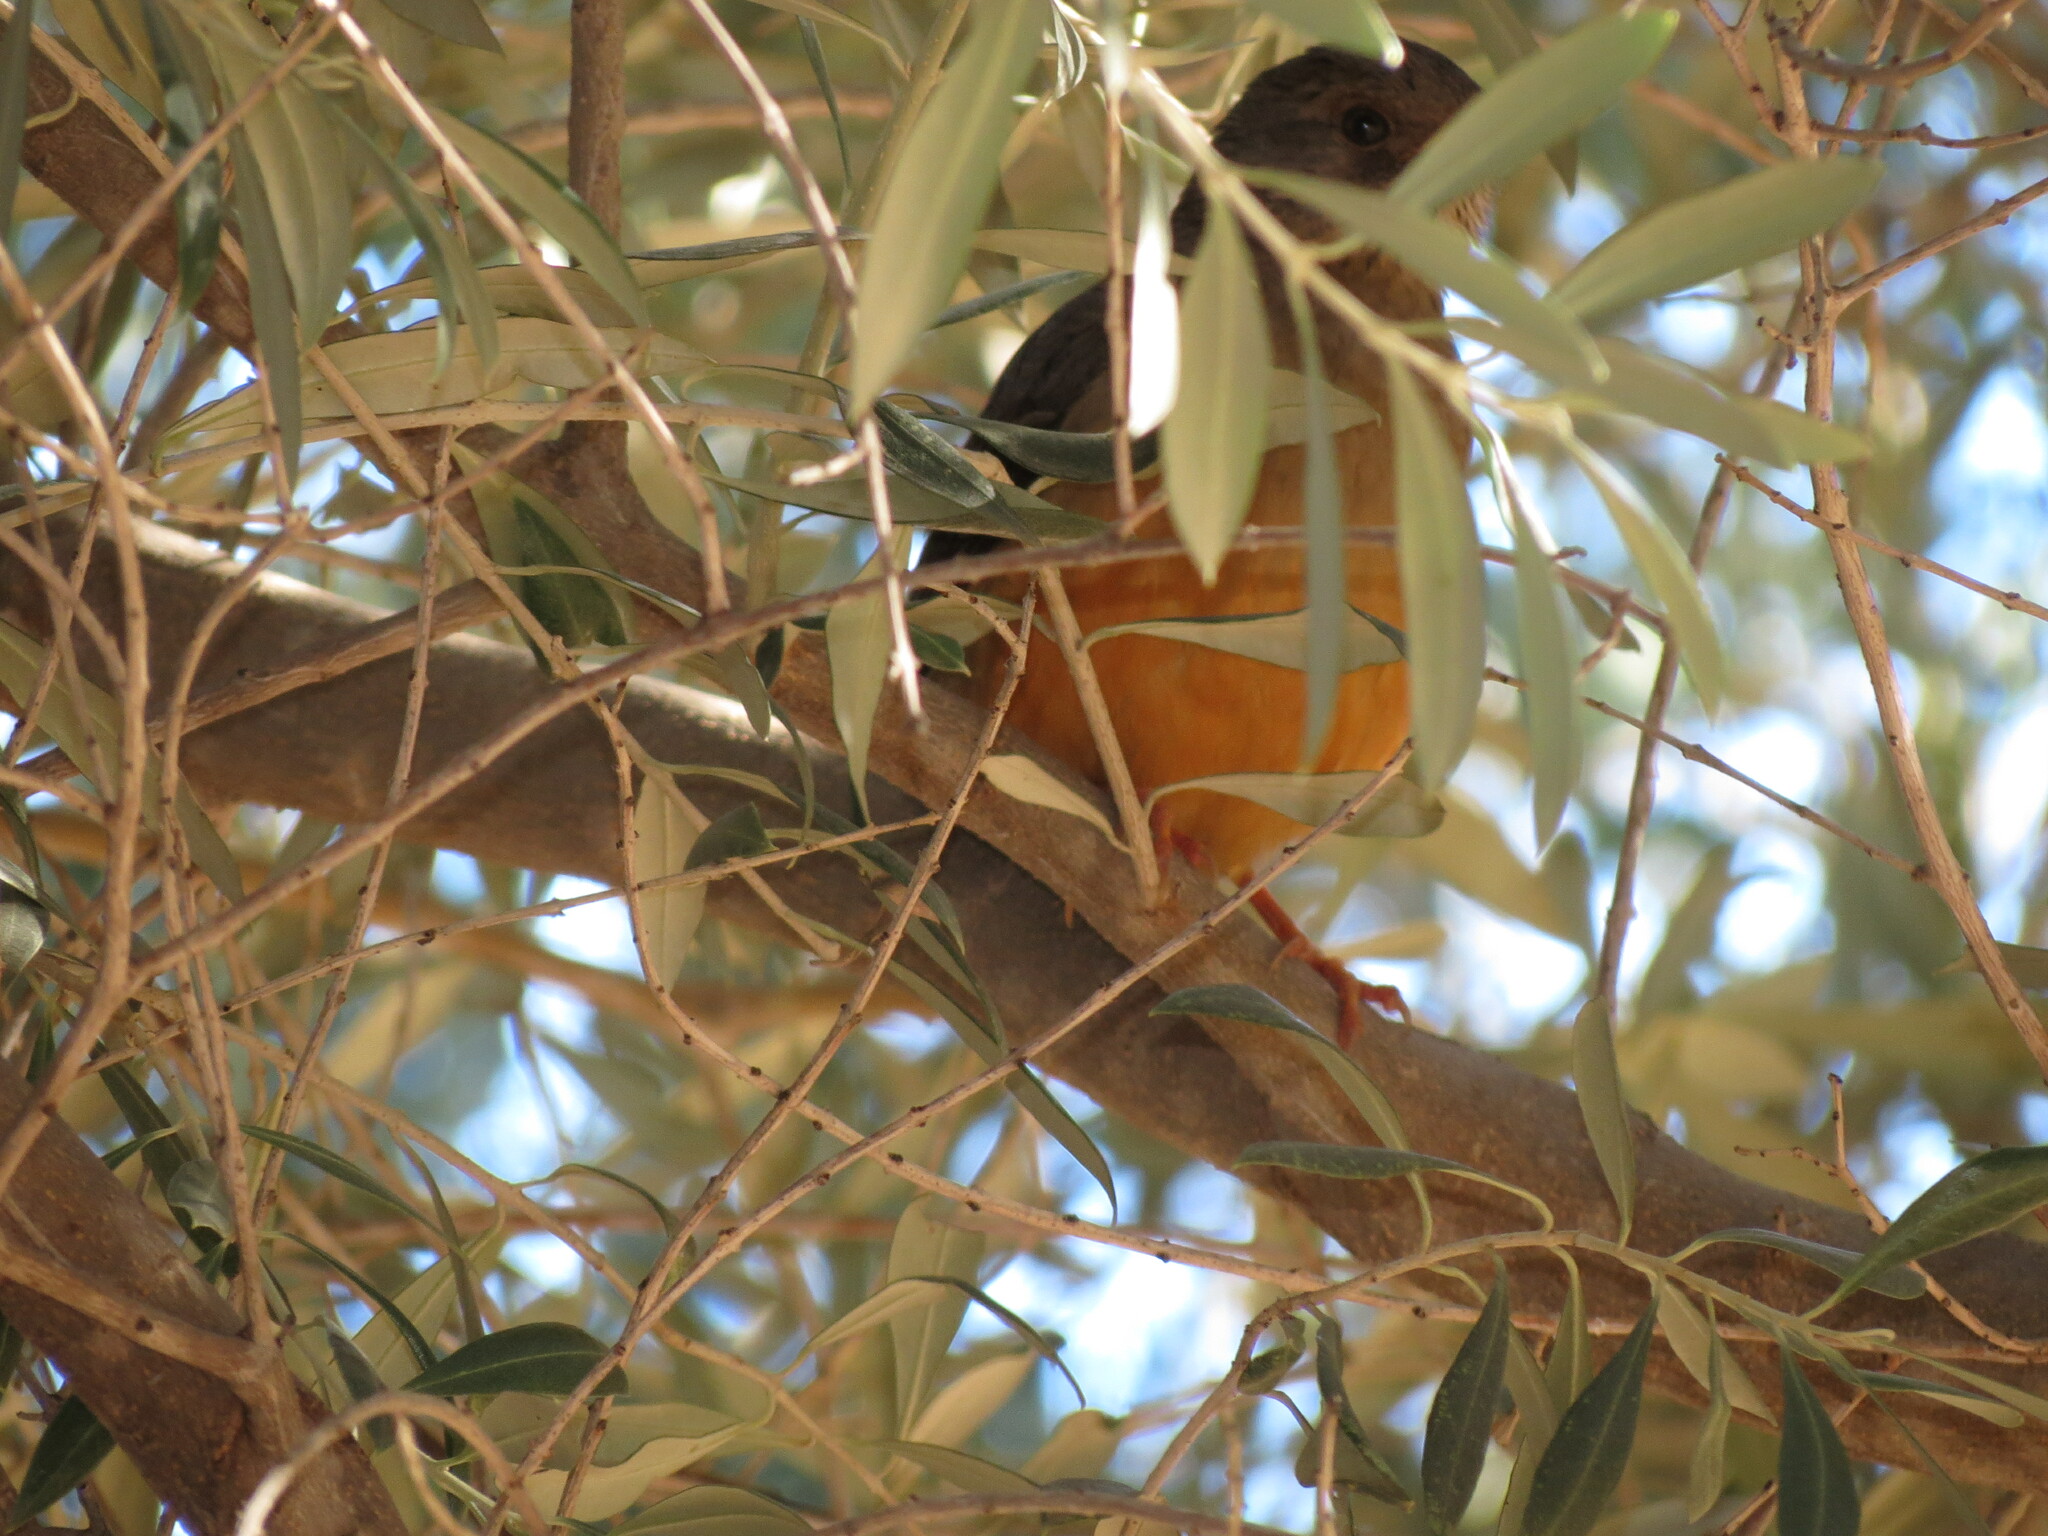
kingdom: Animalia
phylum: Chordata
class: Aves
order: Passeriformes
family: Turdidae
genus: Turdus
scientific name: Turdus olivaceus
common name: Olive thrush
